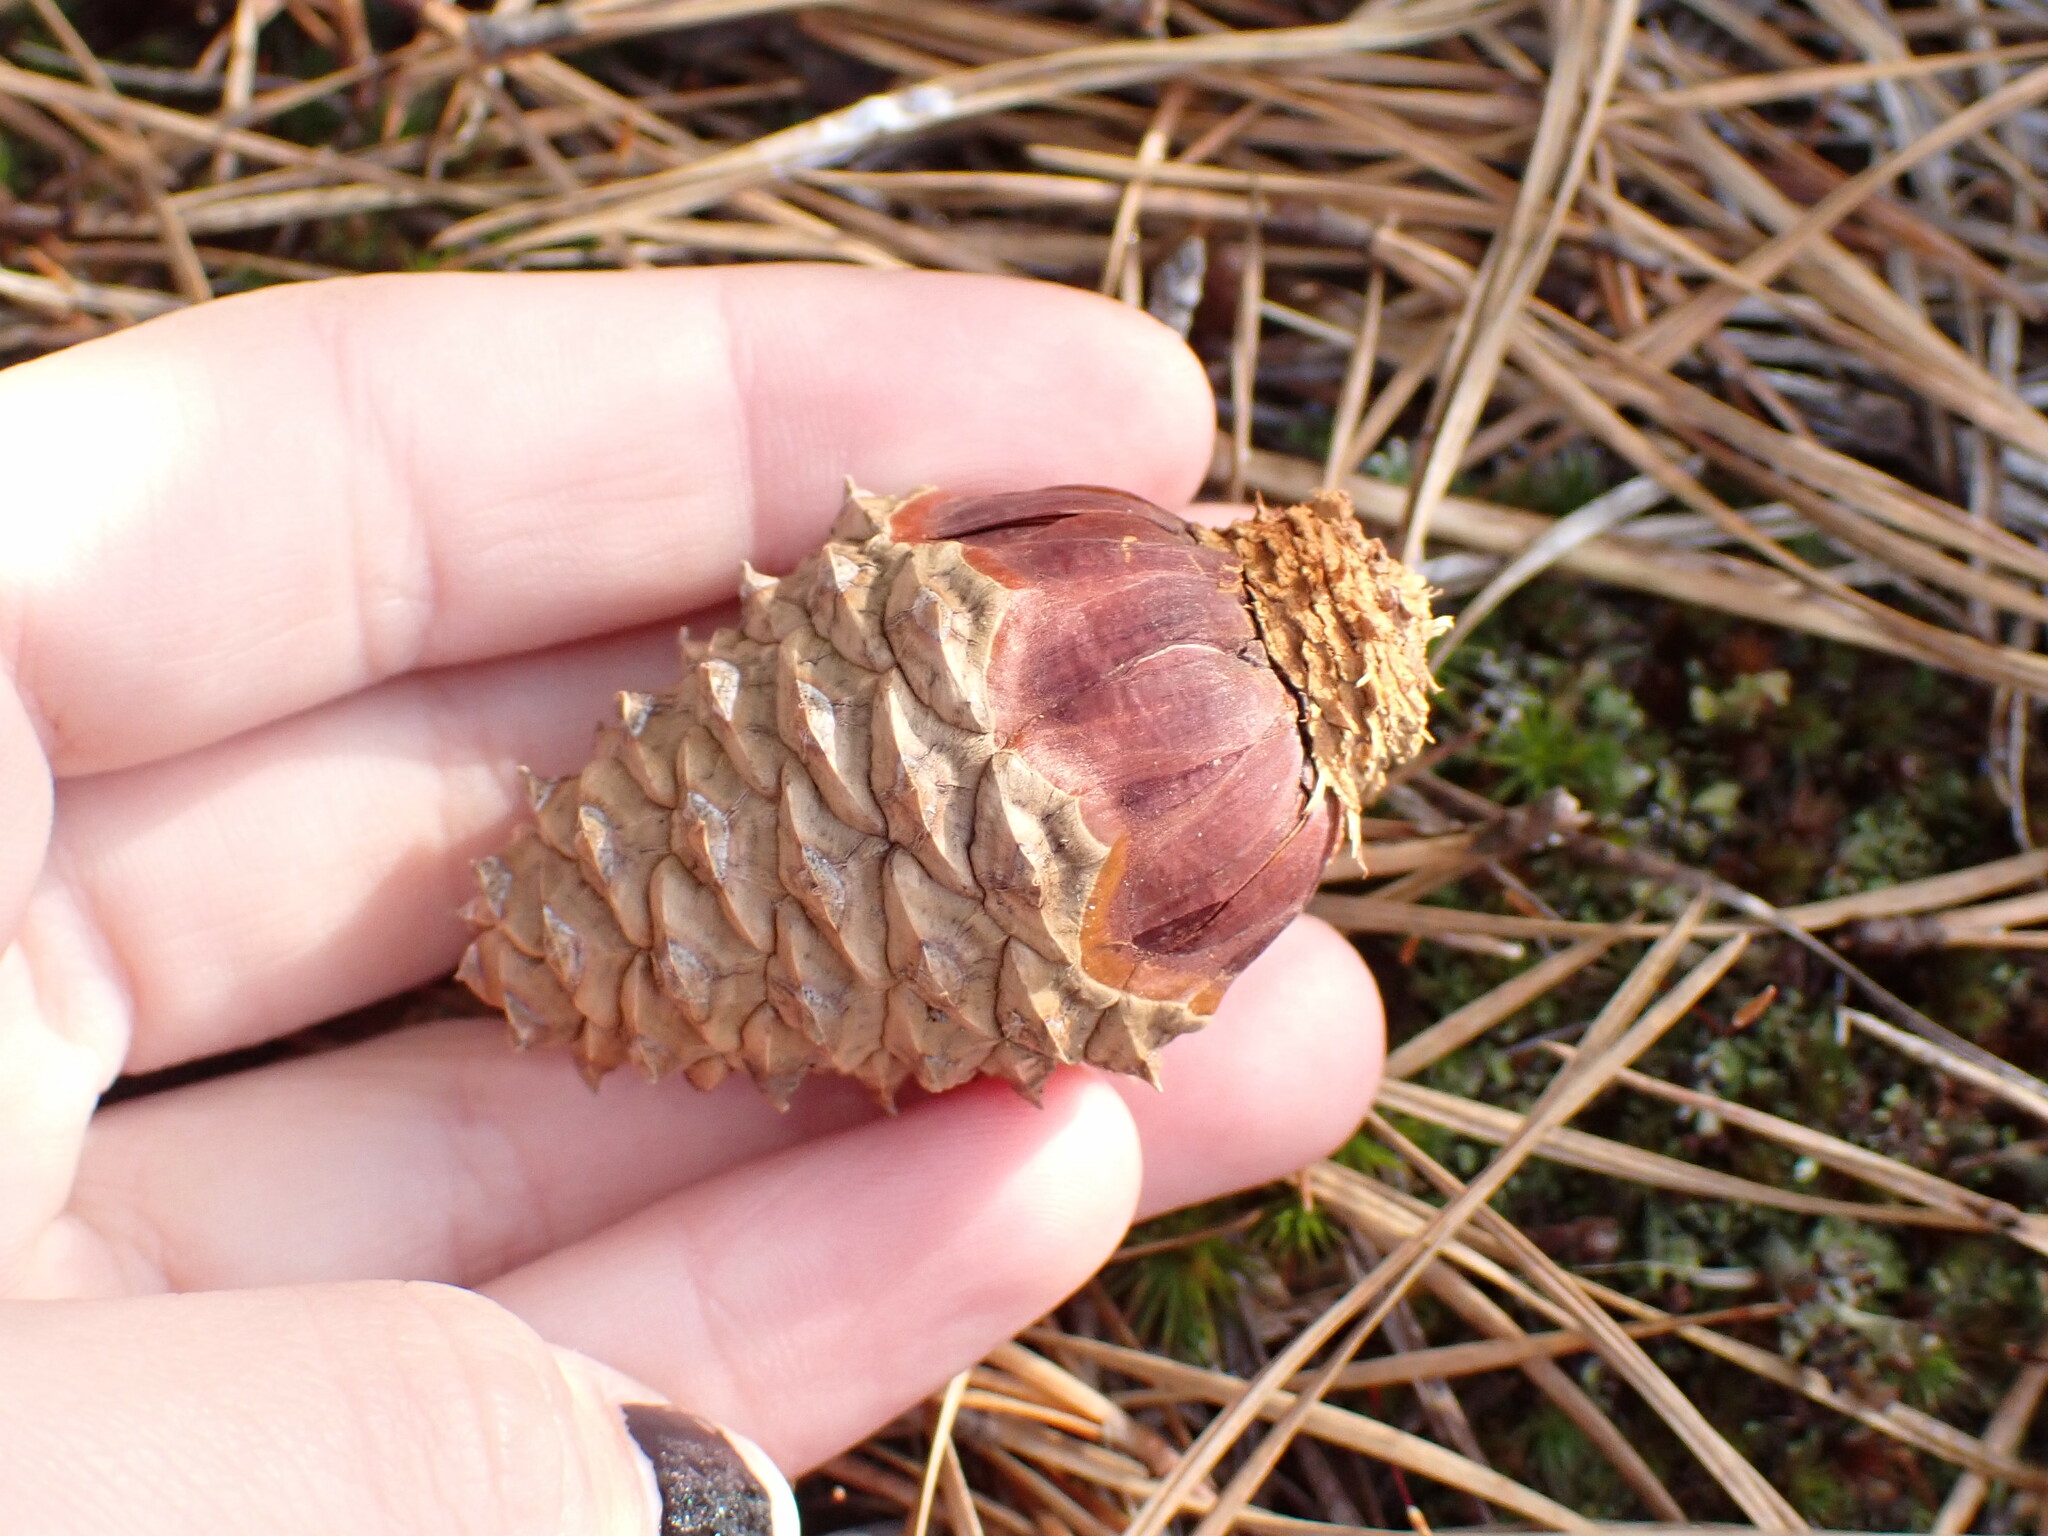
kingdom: Plantae
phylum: Tracheophyta
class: Pinopsida
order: Pinales
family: Pinaceae
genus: Pinus
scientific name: Pinus rigida
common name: Pitch pine
